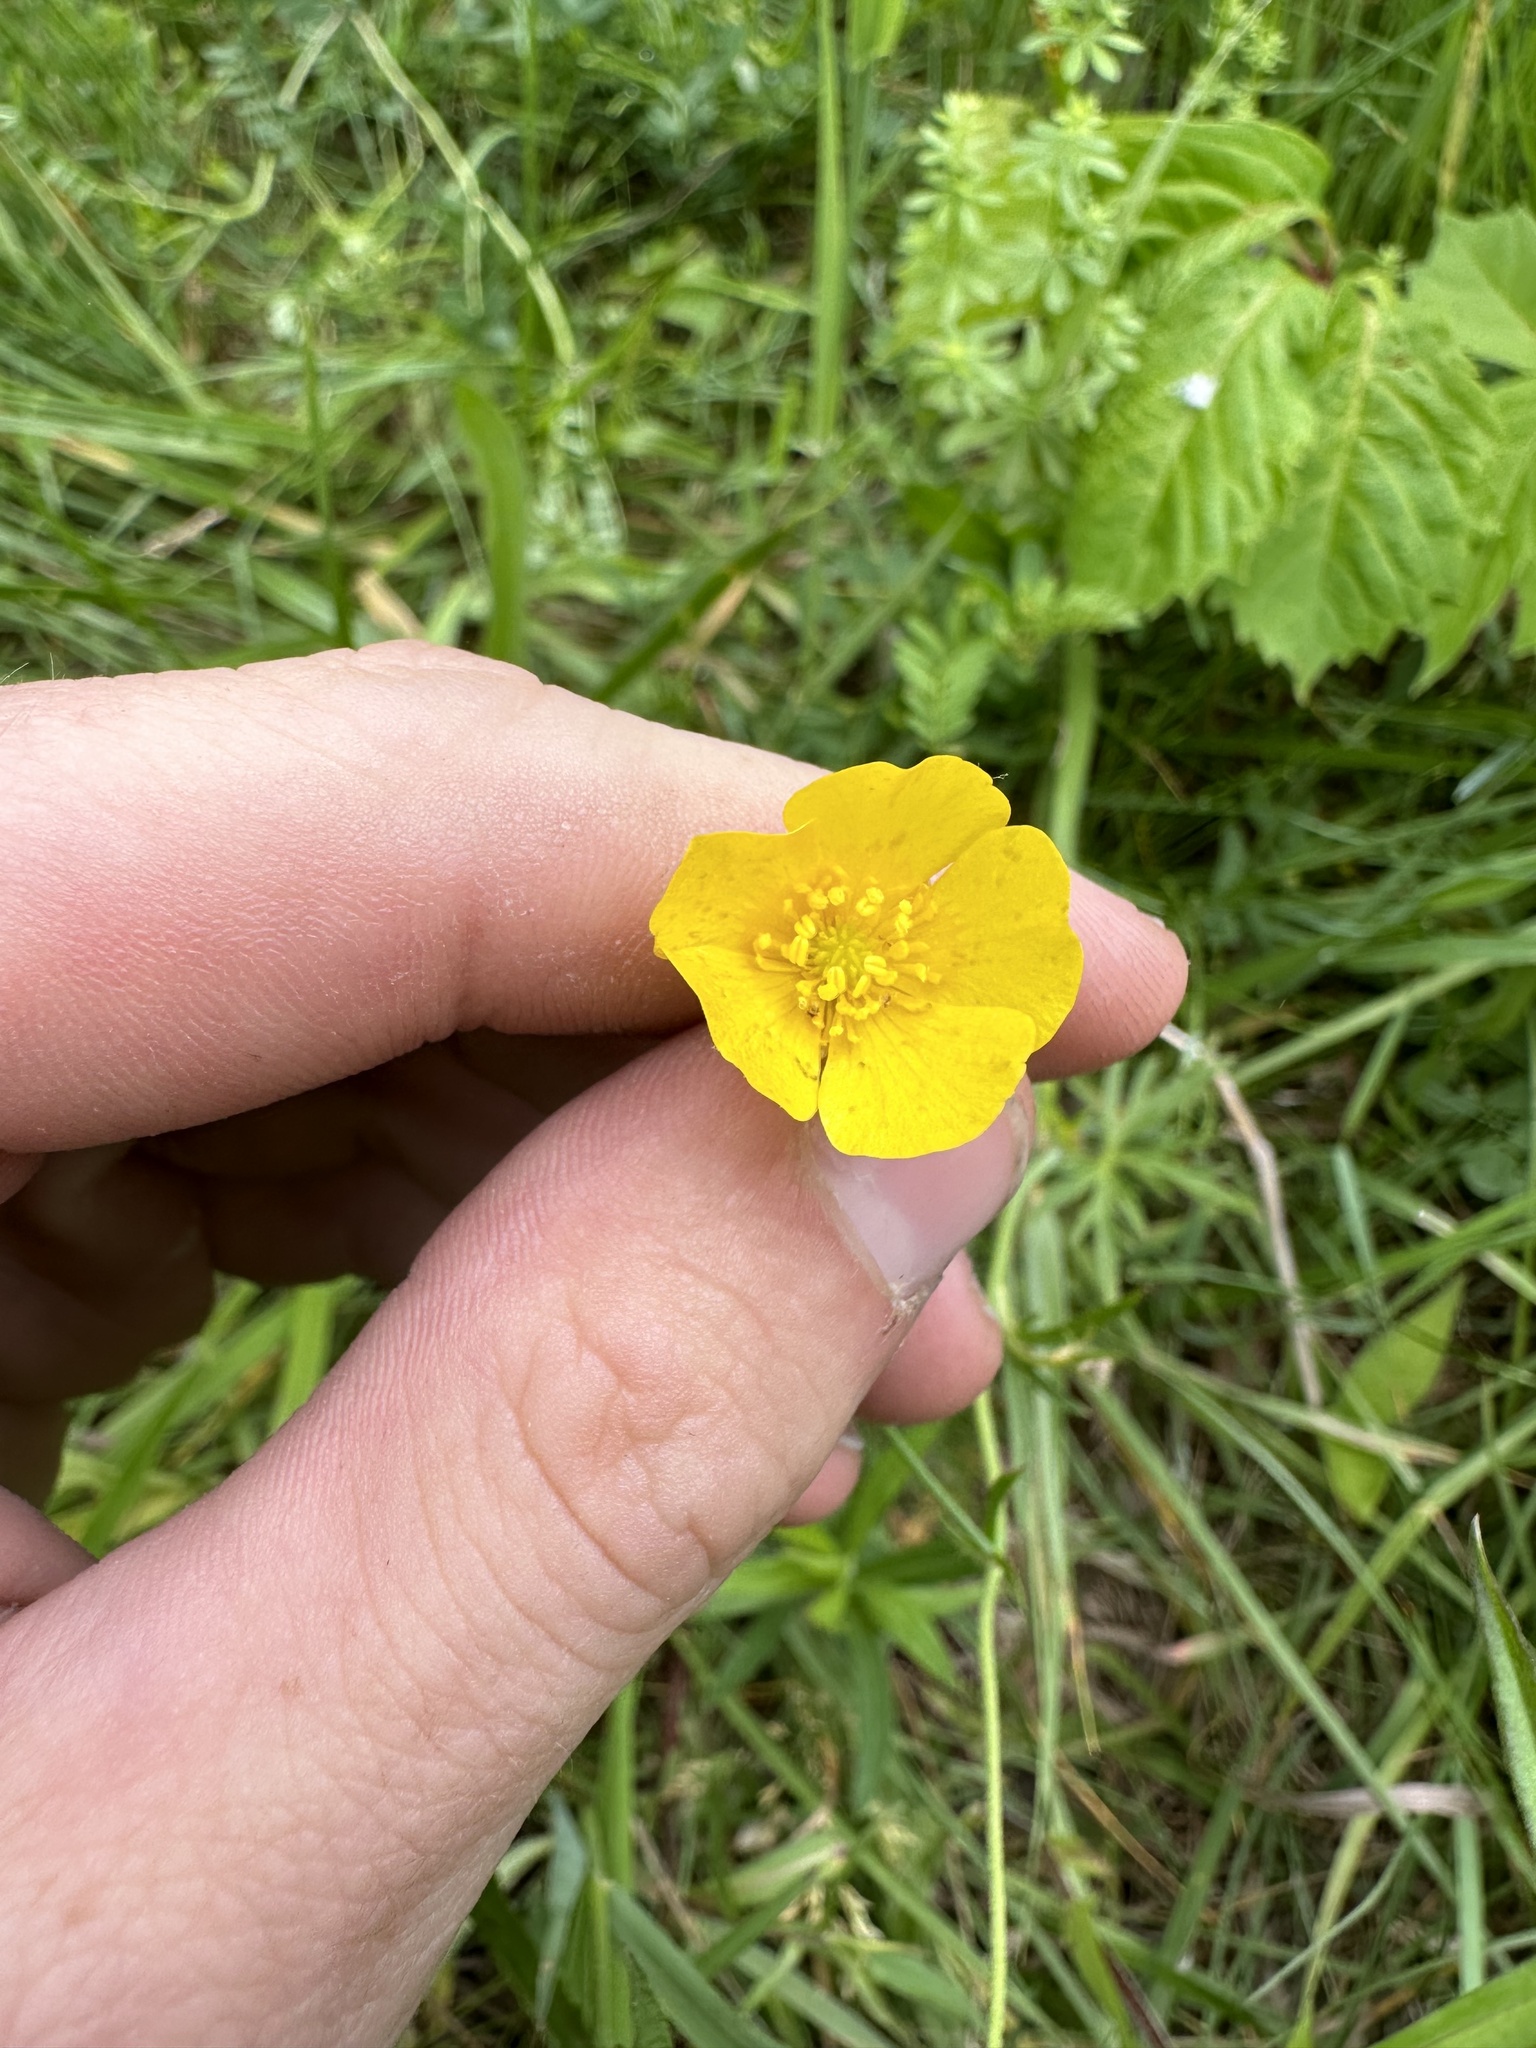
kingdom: Plantae
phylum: Tracheophyta
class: Magnoliopsida
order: Ranunculales
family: Ranunculaceae
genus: Ranunculus
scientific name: Ranunculus acris
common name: Meadow buttercup
